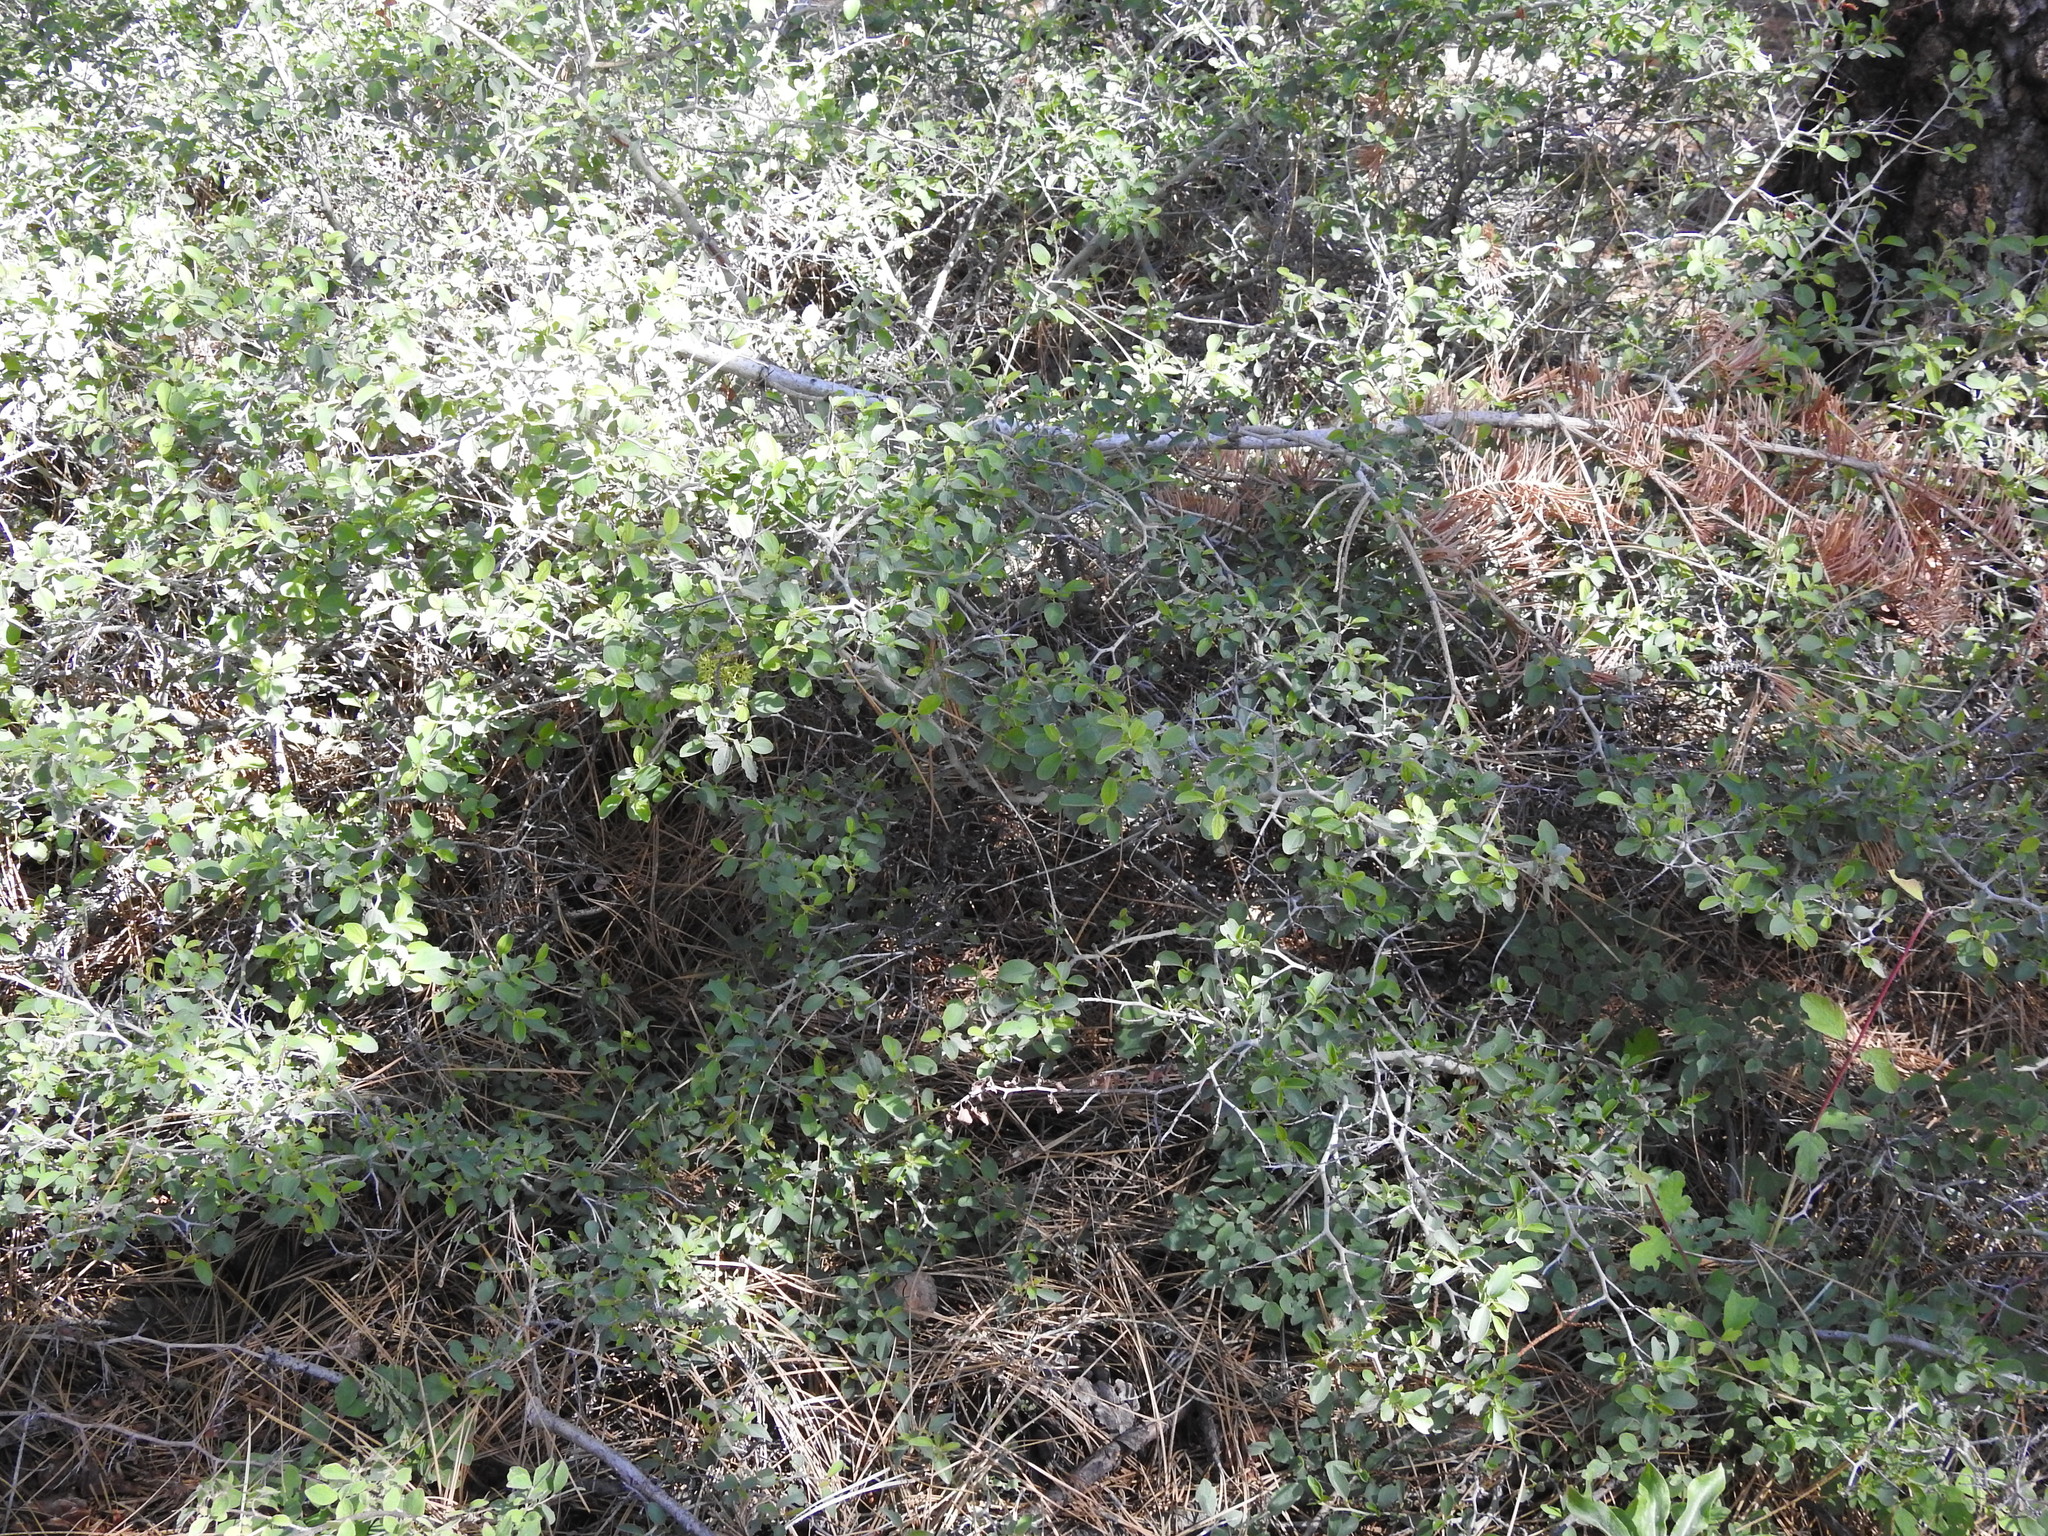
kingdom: Plantae
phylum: Tracheophyta
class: Magnoliopsida
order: Rosales
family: Rhamnaceae
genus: Ceanothus
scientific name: Ceanothus cordulatus
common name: Mountain whitethorn
